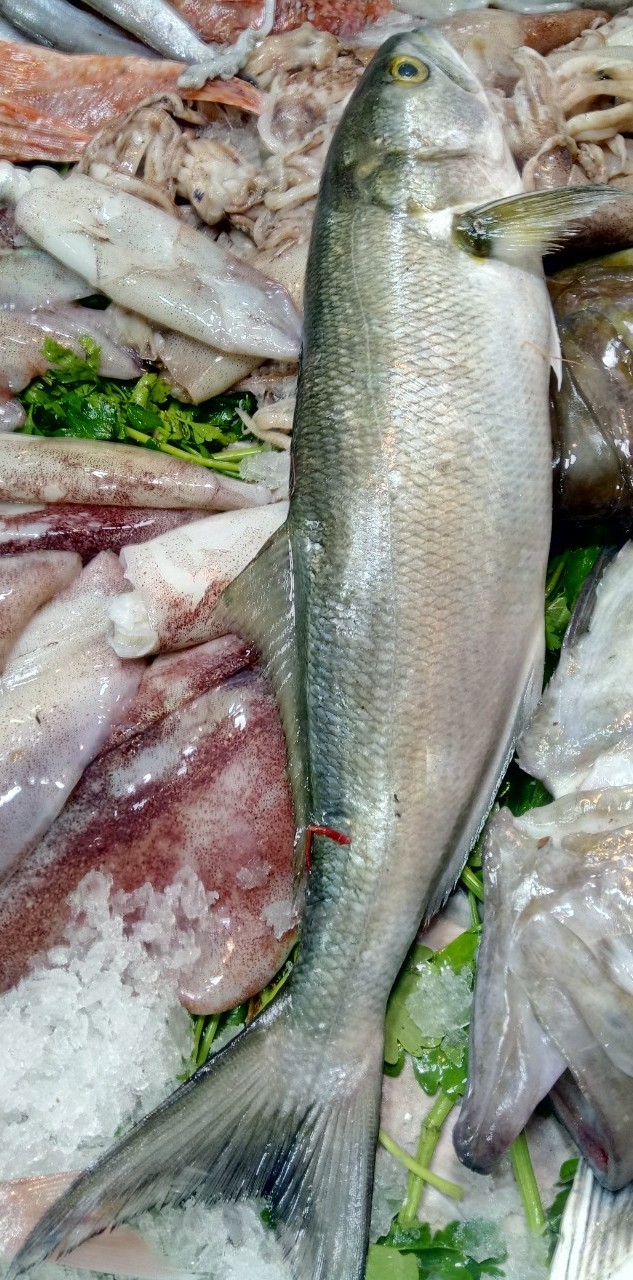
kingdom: Animalia
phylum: Chordata
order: Perciformes
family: Pomatomidae
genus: Pomatomus
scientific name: Pomatomus saltatrix
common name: Bluefish
